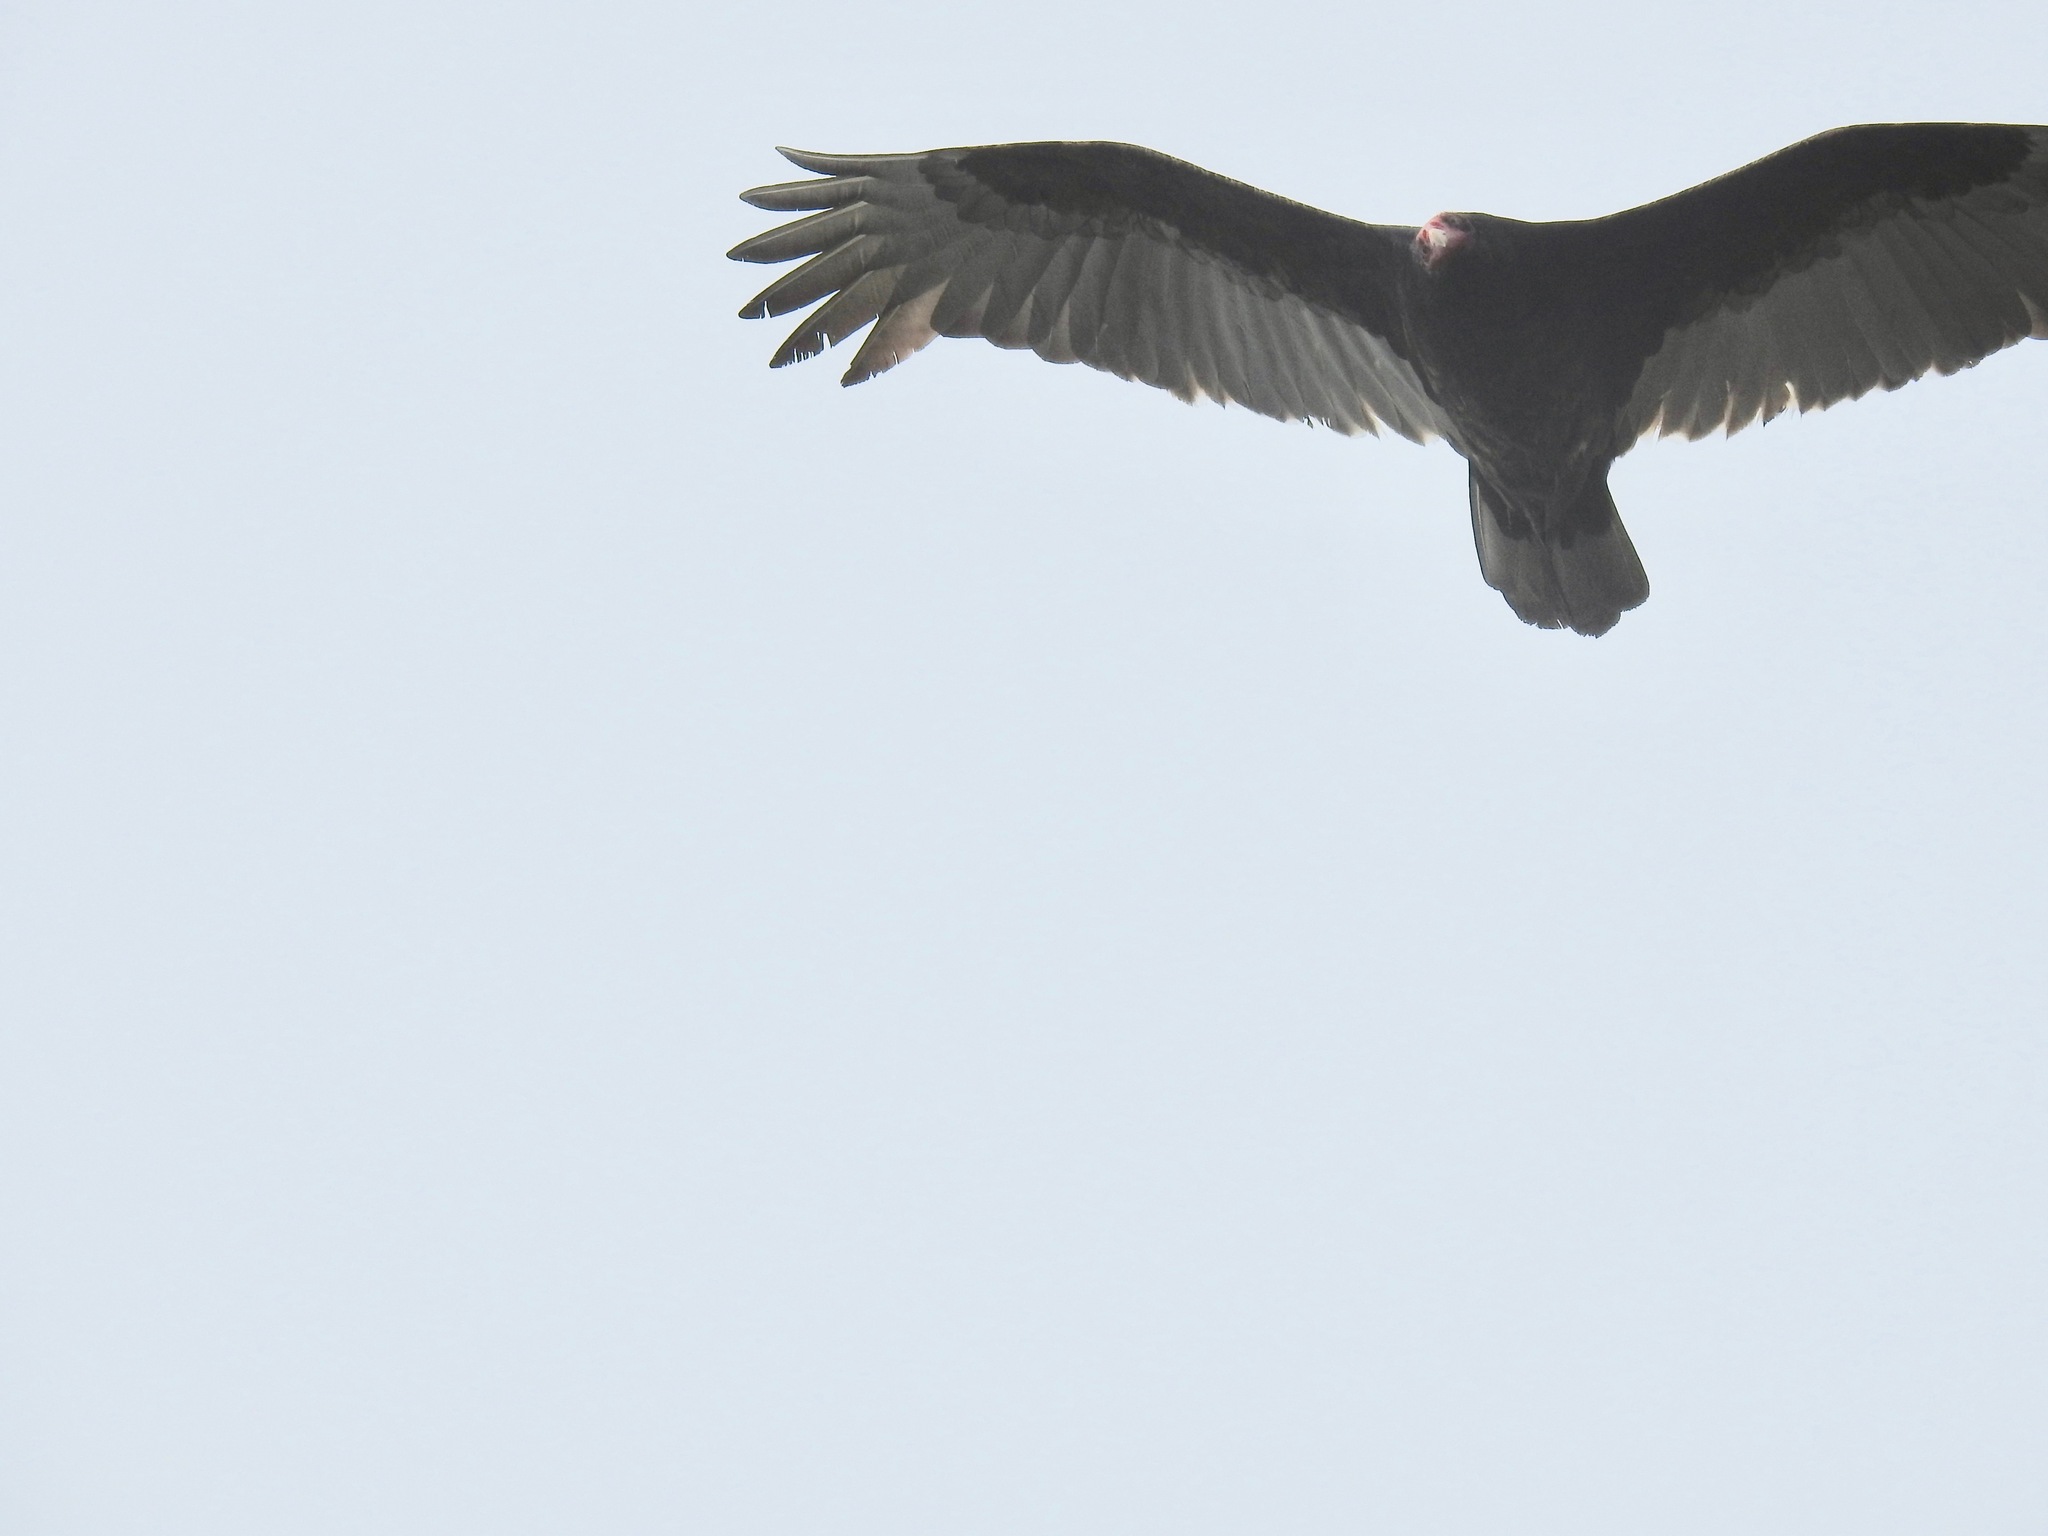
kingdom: Animalia
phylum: Chordata
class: Aves
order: Accipitriformes
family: Cathartidae
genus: Cathartes
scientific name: Cathartes aura
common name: Turkey vulture
